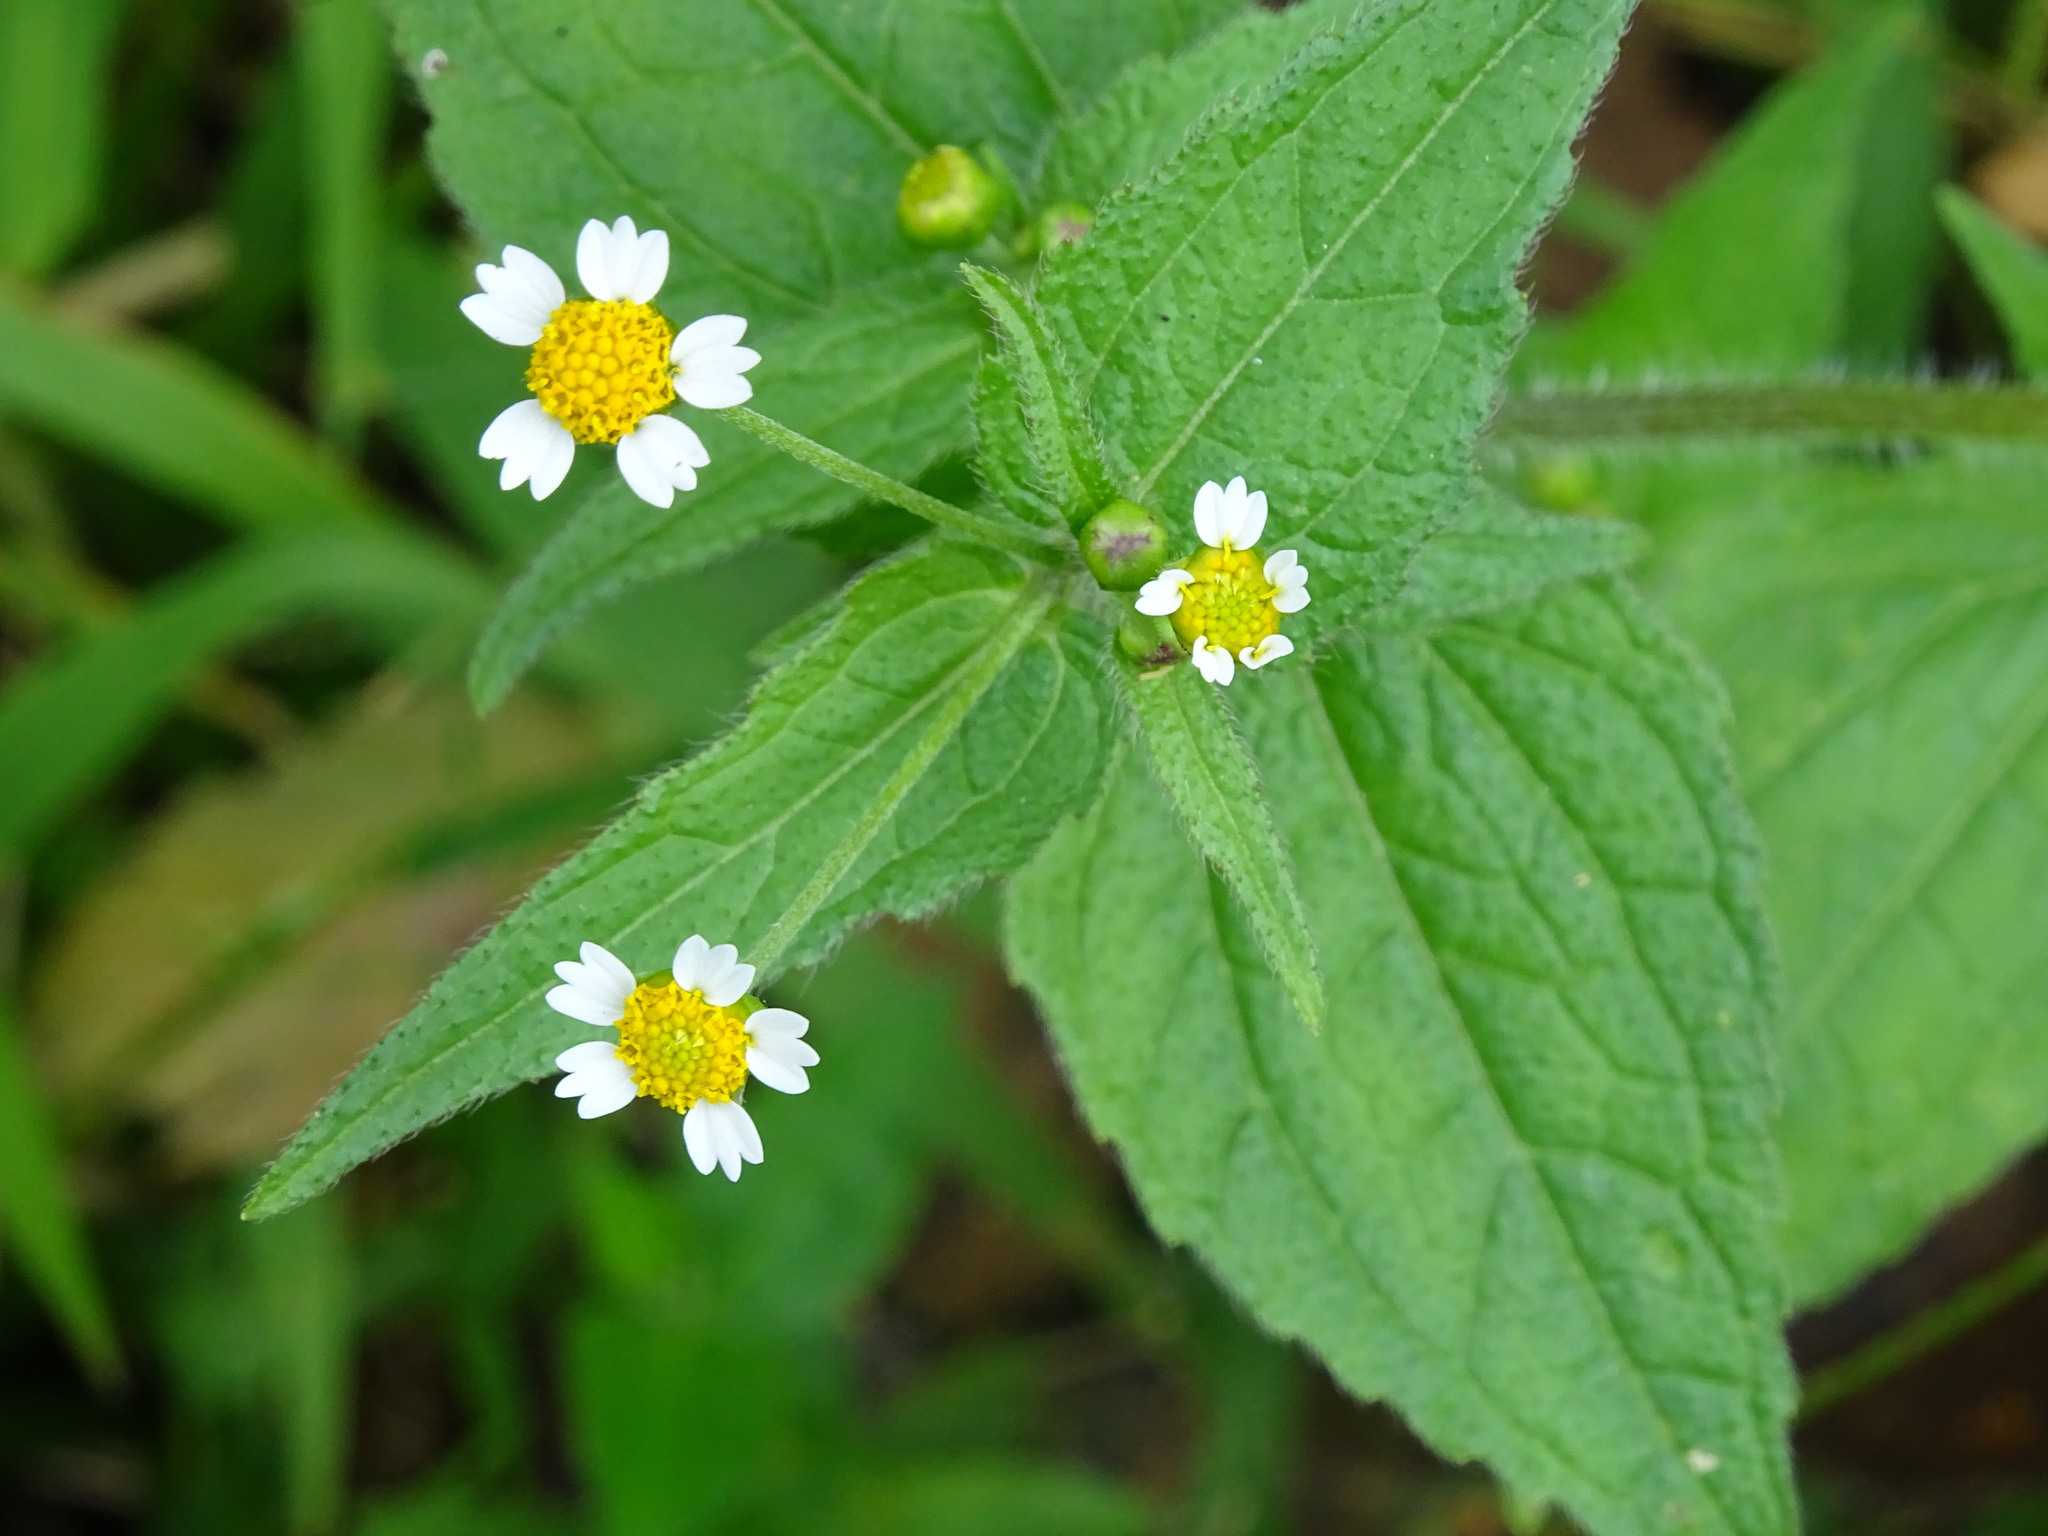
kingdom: Plantae
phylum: Tracheophyta
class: Magnoliopsida
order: Asterales
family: Asteraceae
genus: Galinsoga
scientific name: Galinsoga parviflora
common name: Gallant soldier
